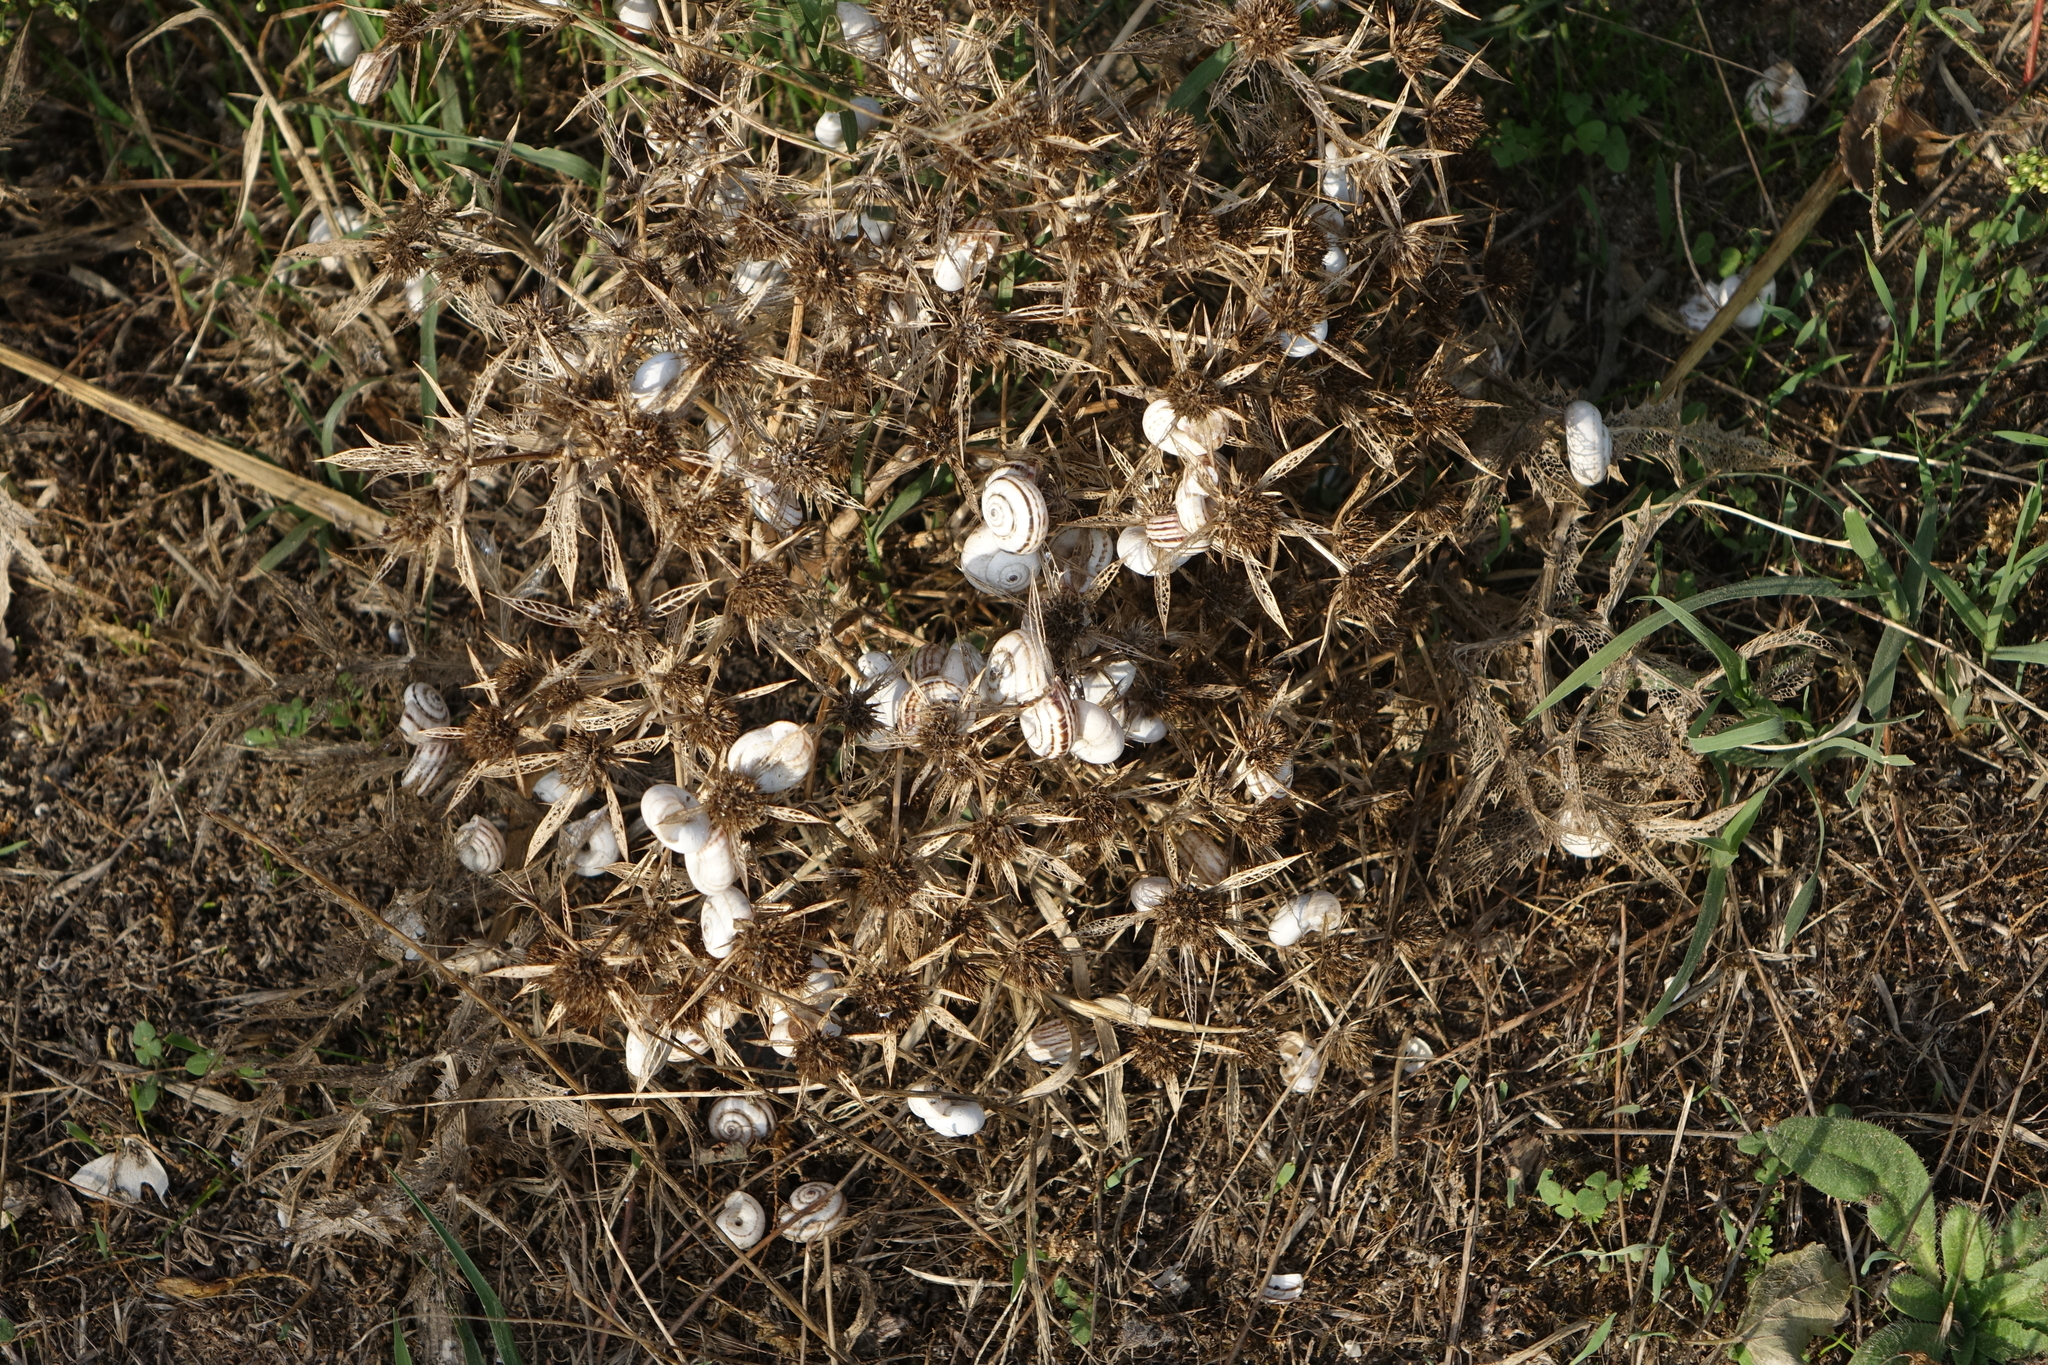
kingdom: Animalia
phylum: Mollusca
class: Gastropoda
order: Stylommatophora
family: Geomitridae
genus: Xeropicta
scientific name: Xeropicta derbentina
